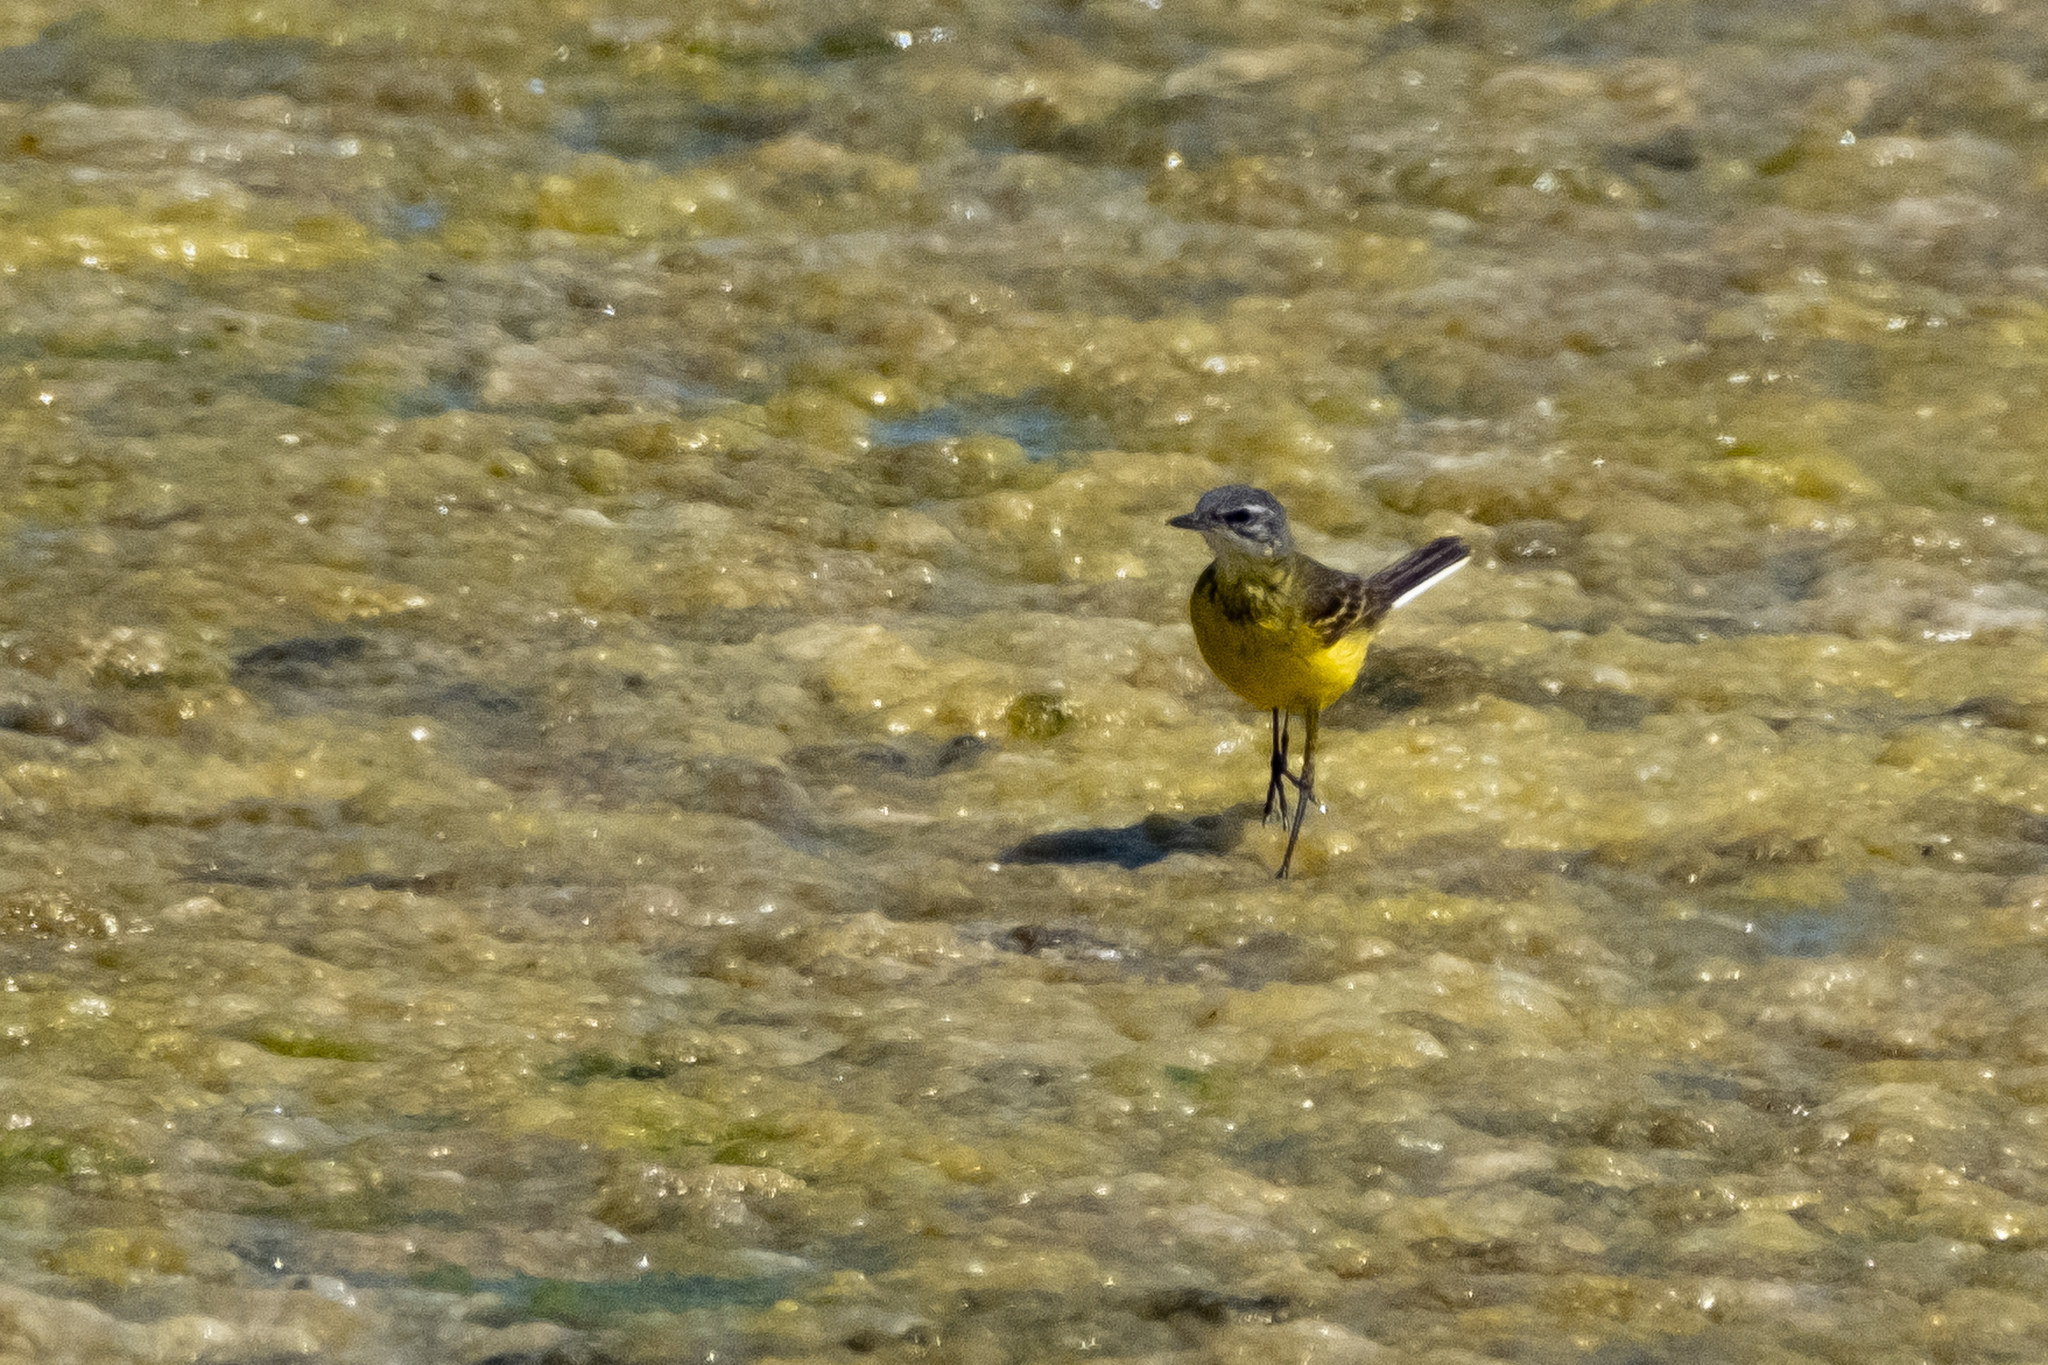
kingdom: Animalia
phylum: Chordata
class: Aves
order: Passeriformes
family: Motacillidae
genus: Motacilla
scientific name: Motacilla flava
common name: Western yellow wagtail
